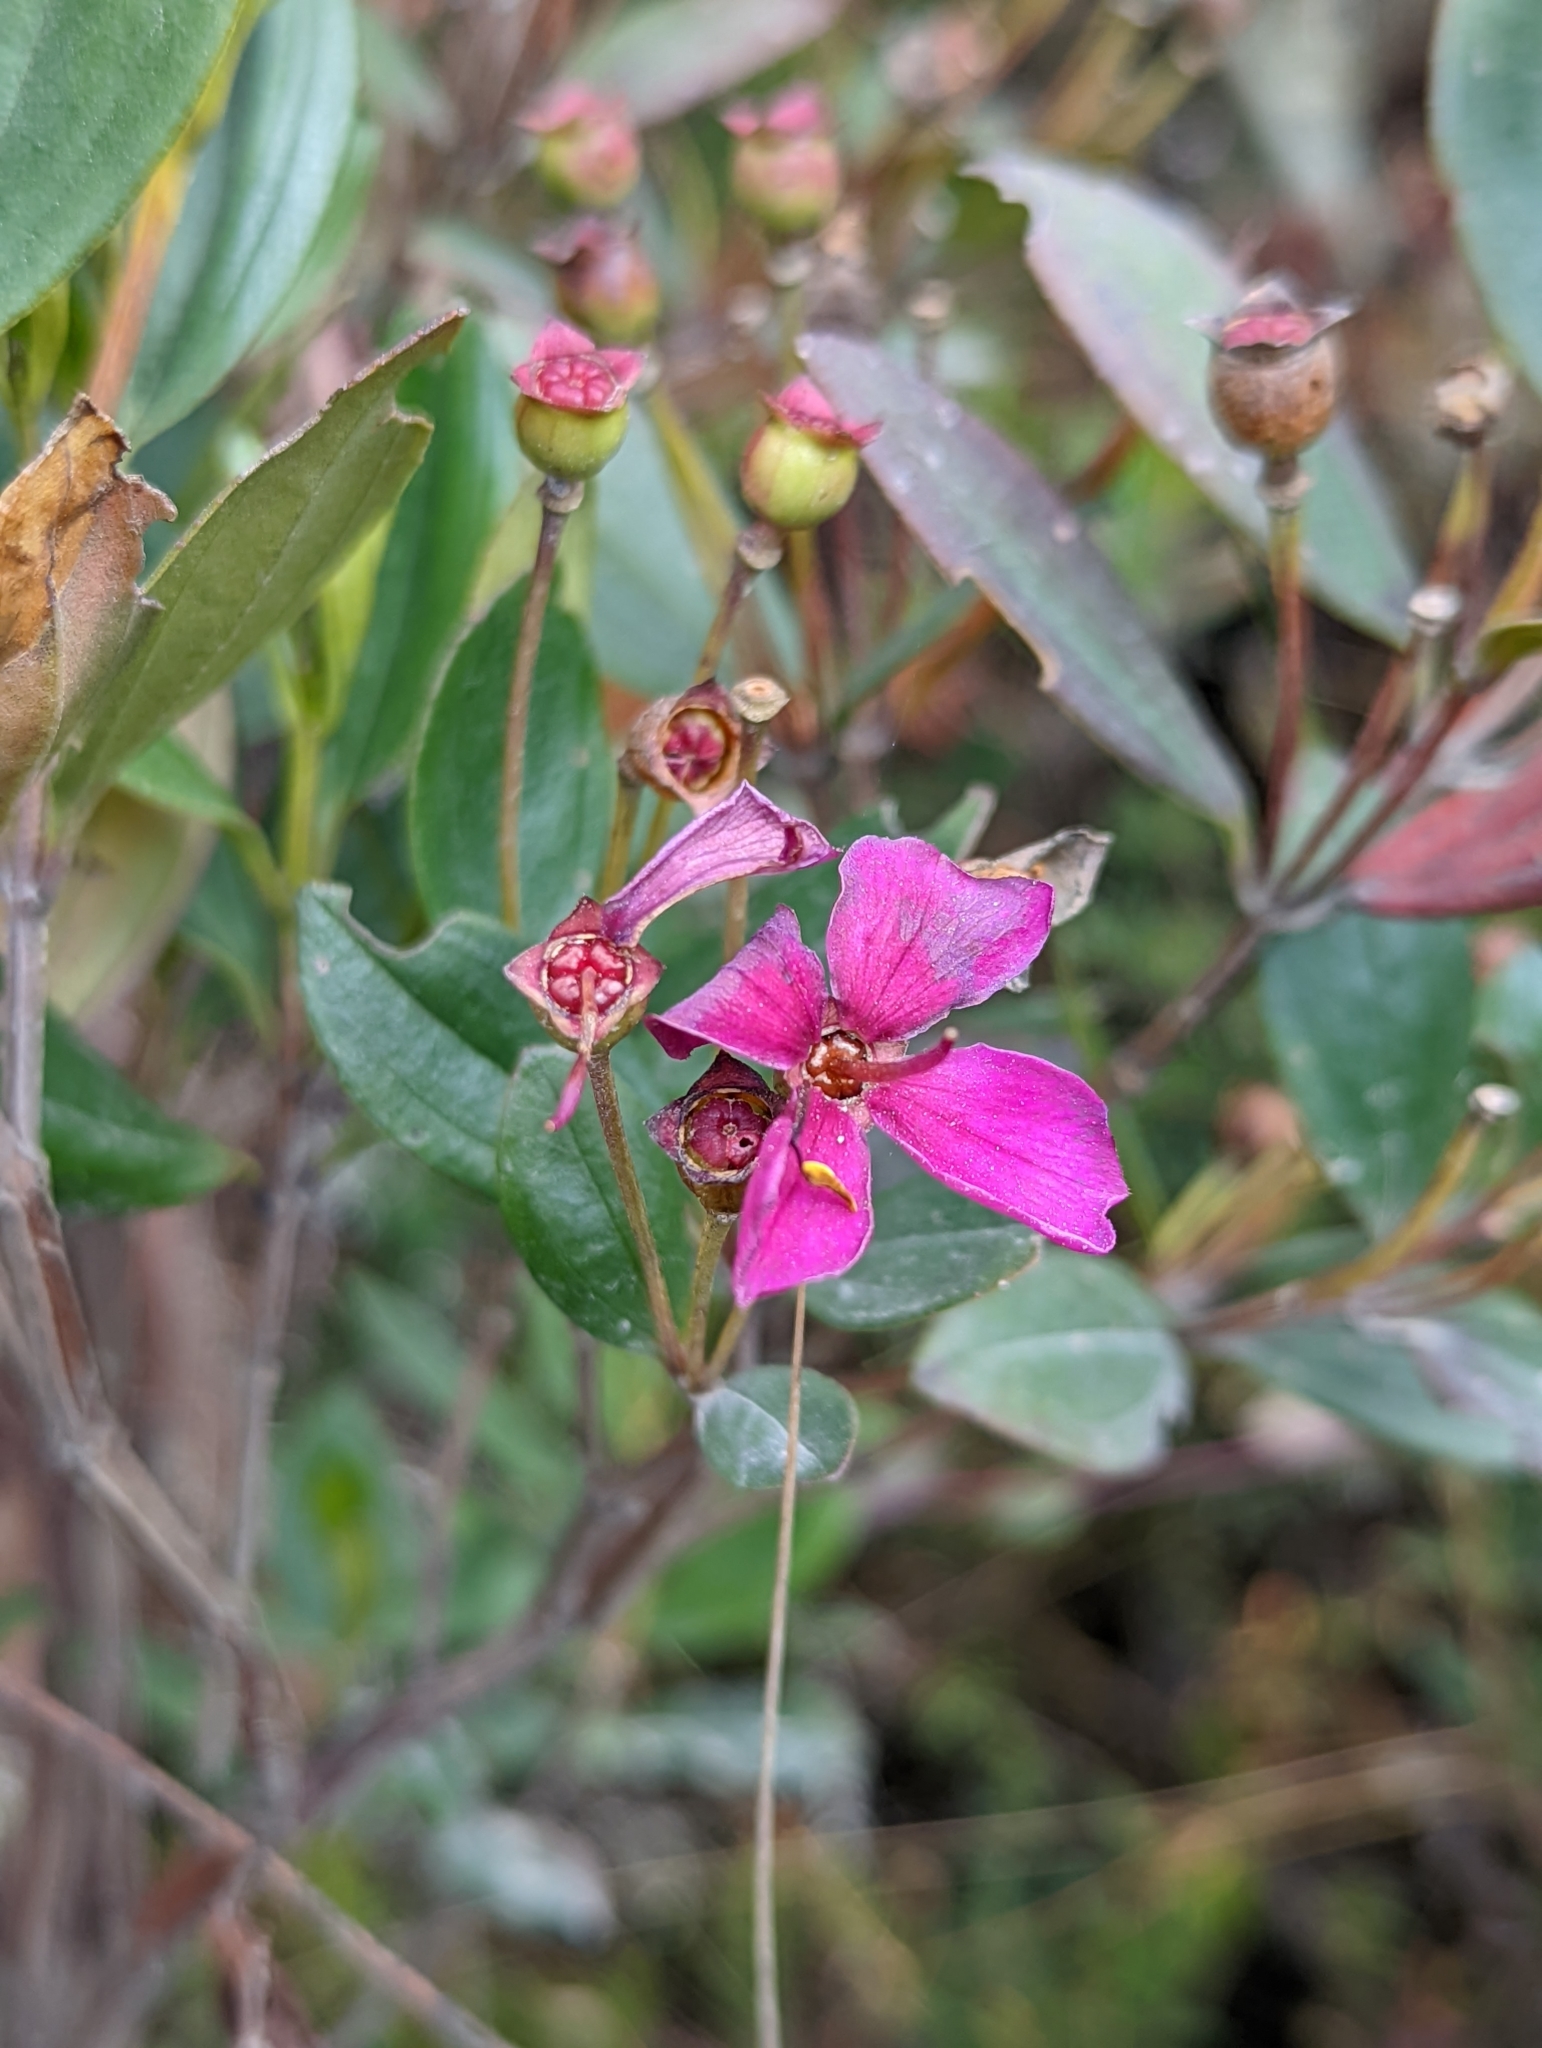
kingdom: Plantae
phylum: Tracheophyta
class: Magnoliopsida
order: Myrtales
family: Melastomataceae
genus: Bucquetia
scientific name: Bucquetia glutinosa
